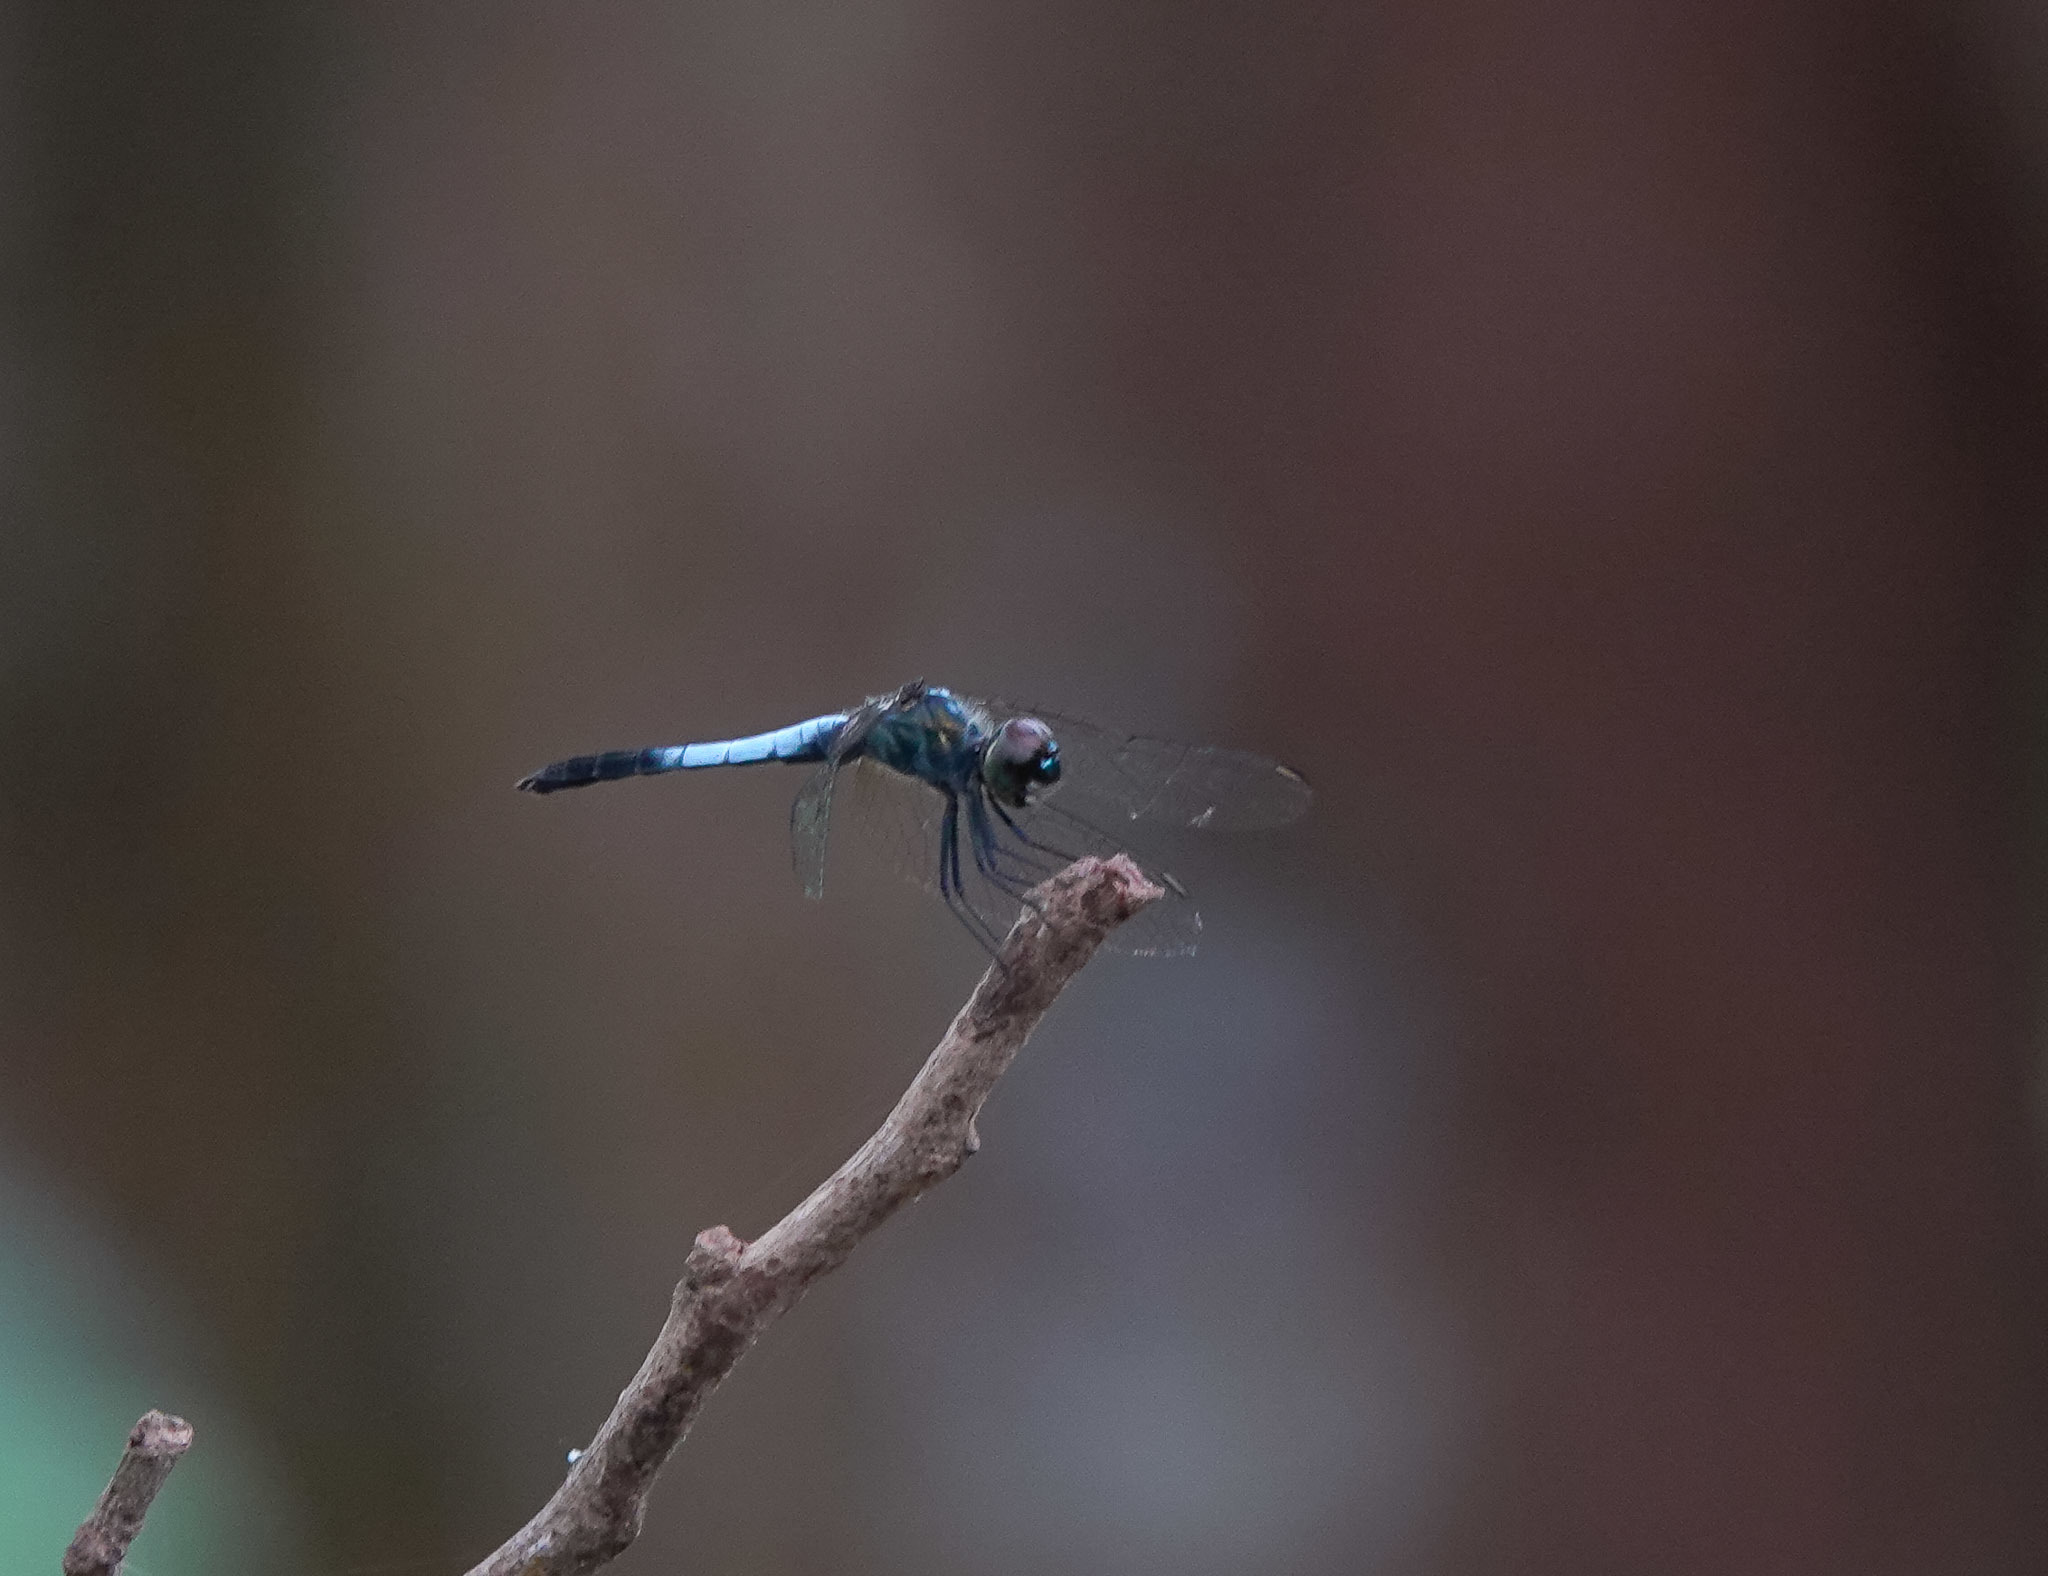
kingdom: Animalia
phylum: Arthropoda
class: Insecta
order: Odonata
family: Libellulidae
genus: Brachydiplax
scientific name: Brachydiplax farinosa
